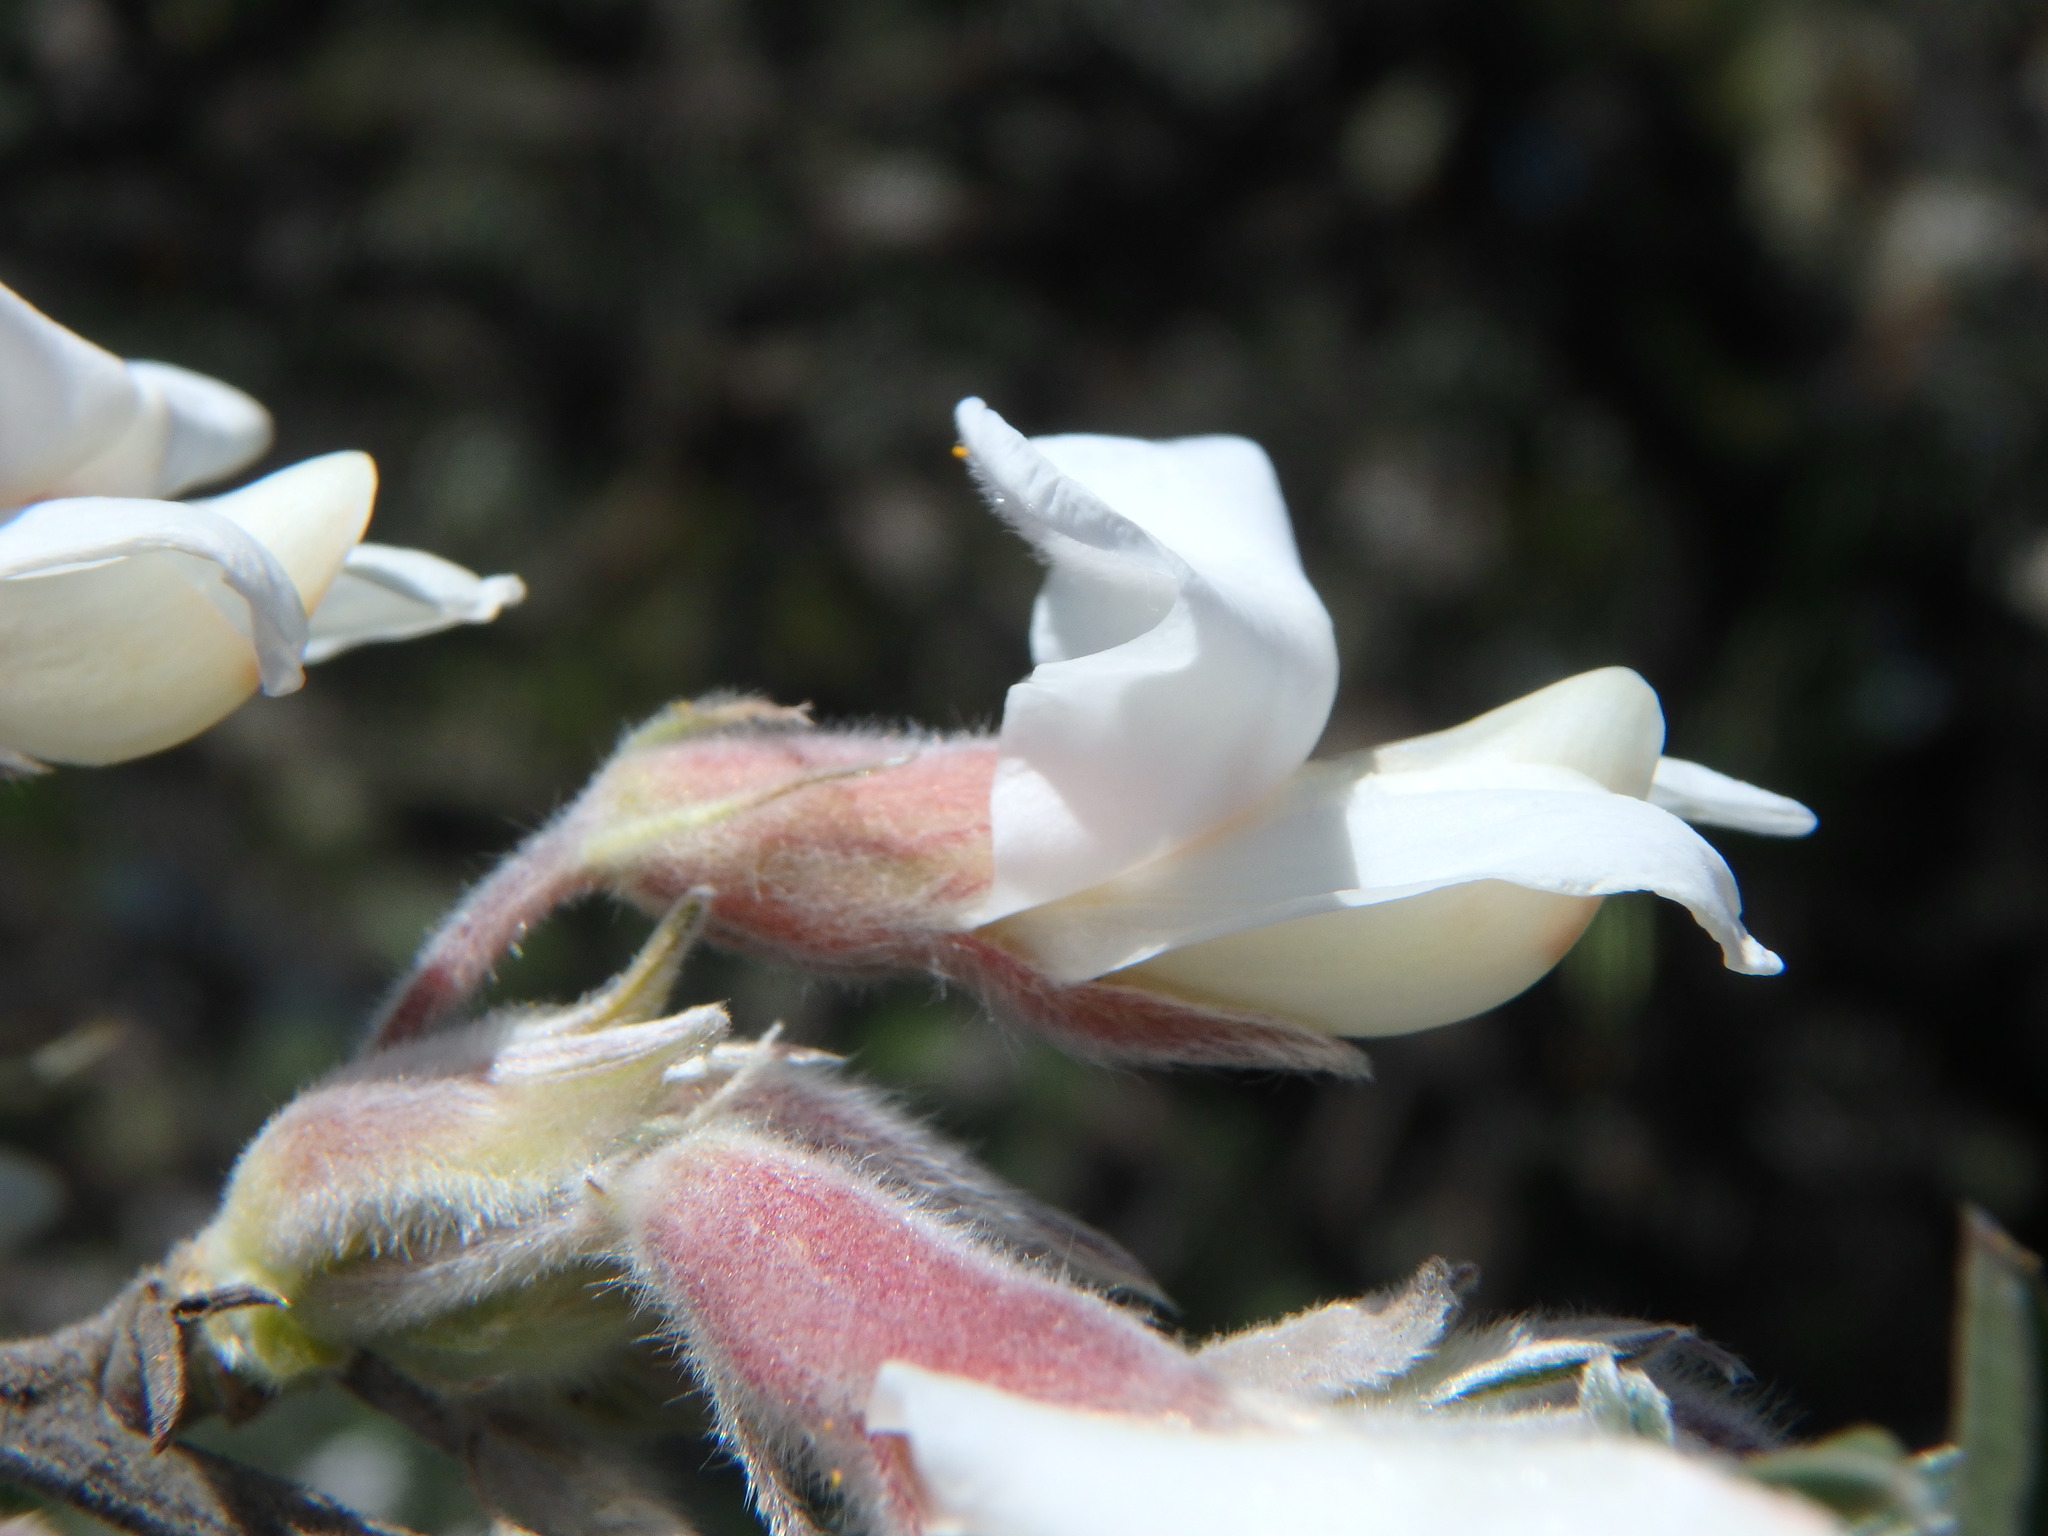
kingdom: Plantae
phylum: Tracheophyta
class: Magnoliopsida
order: Fabales
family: Fabaceae
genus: Chamaecytisus
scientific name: Chamaecytisus prolifer
